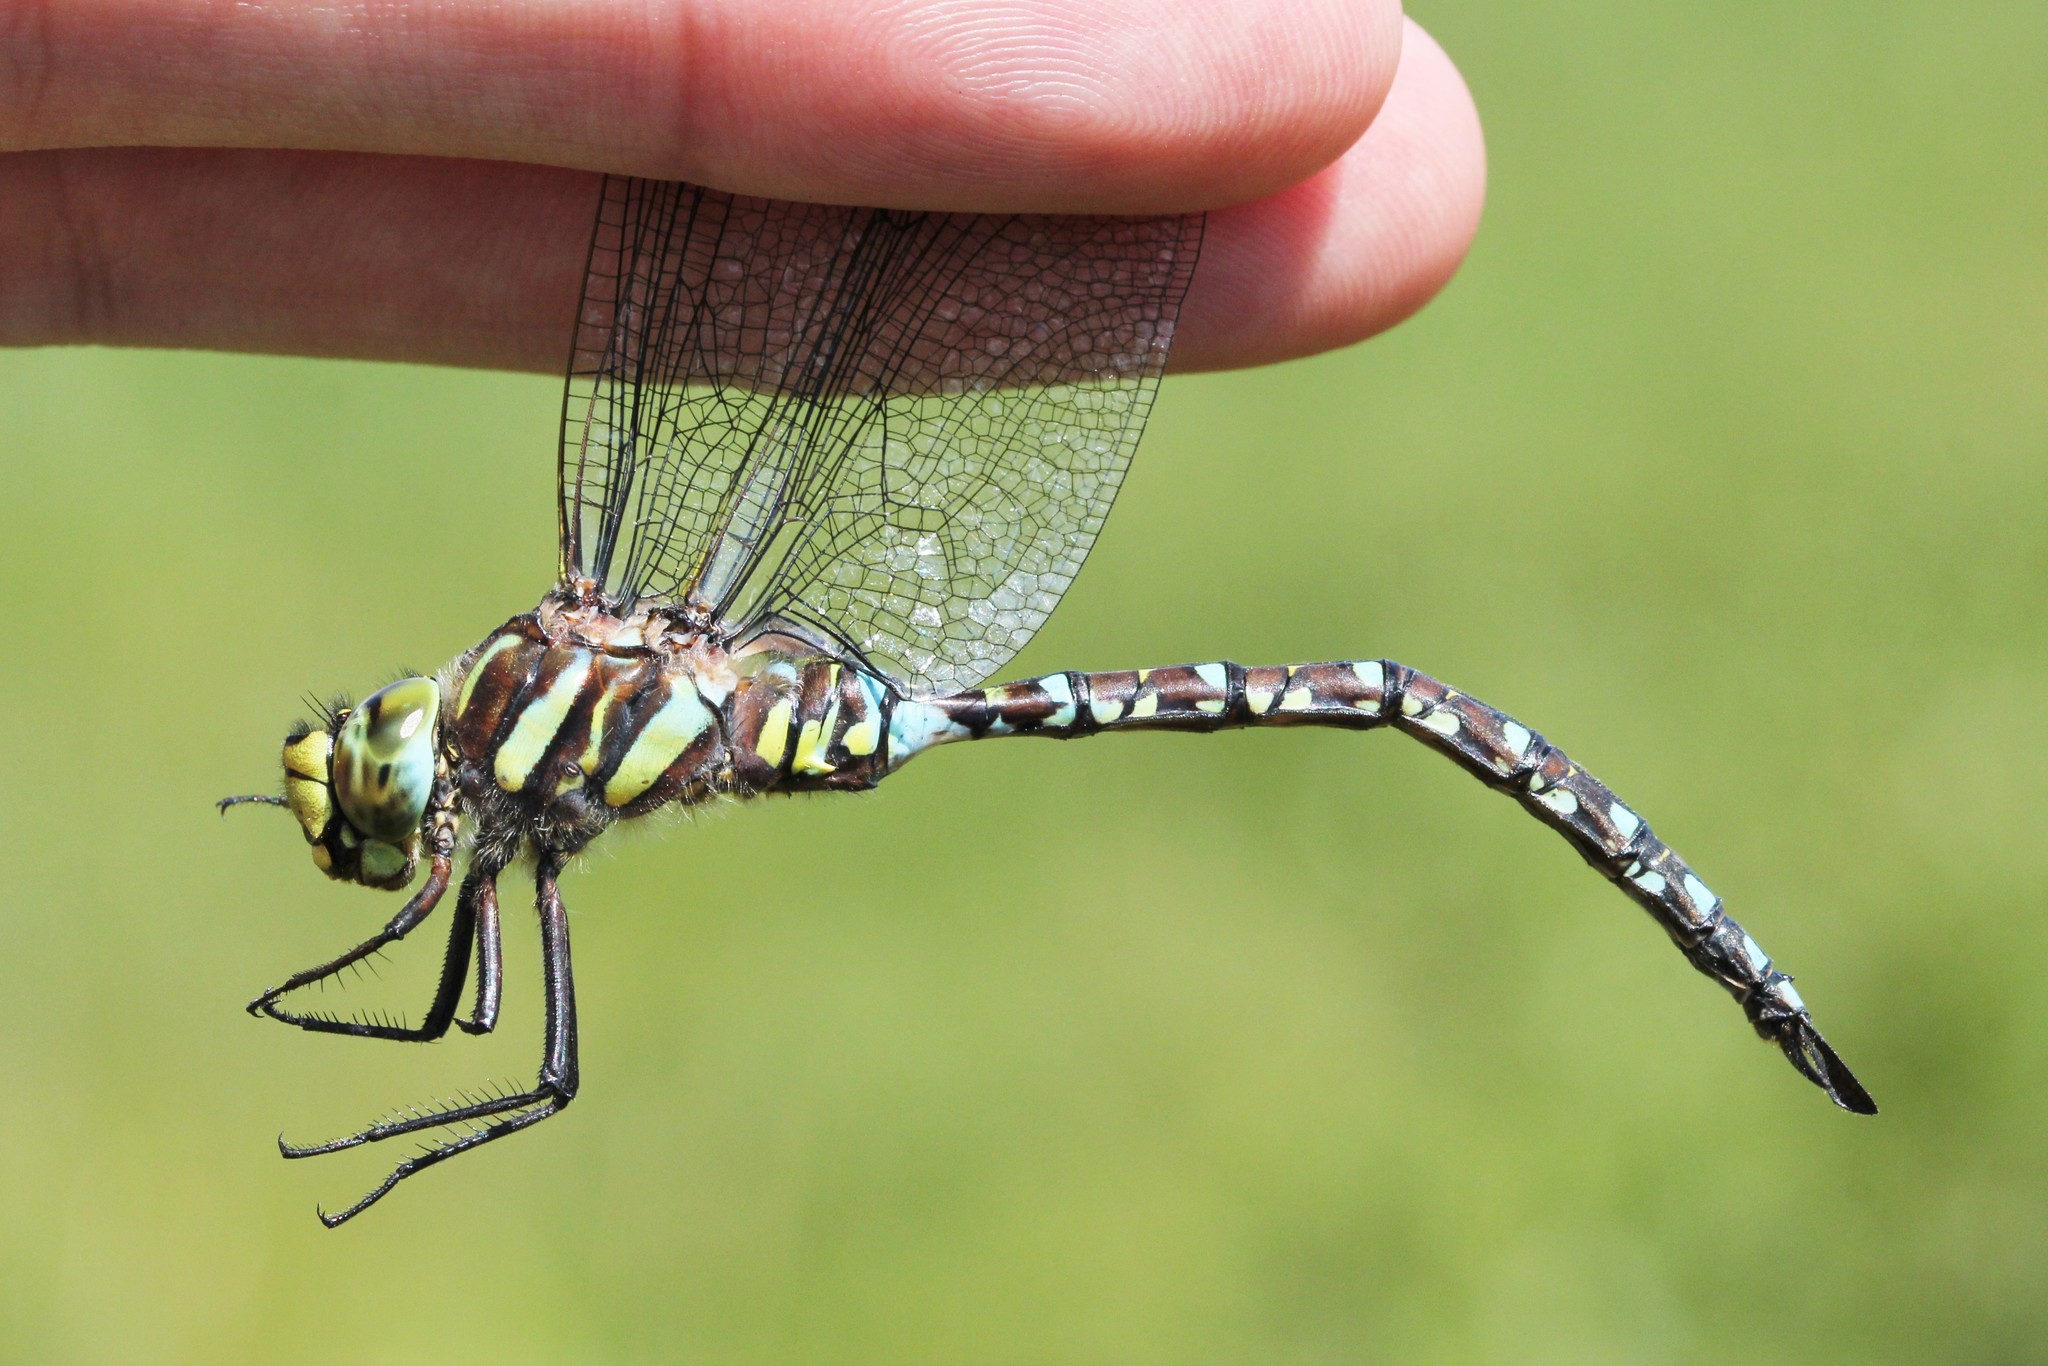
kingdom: Animalia
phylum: Arthropoda
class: Insecta
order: Odonata
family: Aeshnidae
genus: Aeshna
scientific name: Aeshna juncea
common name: Moorland hawker
